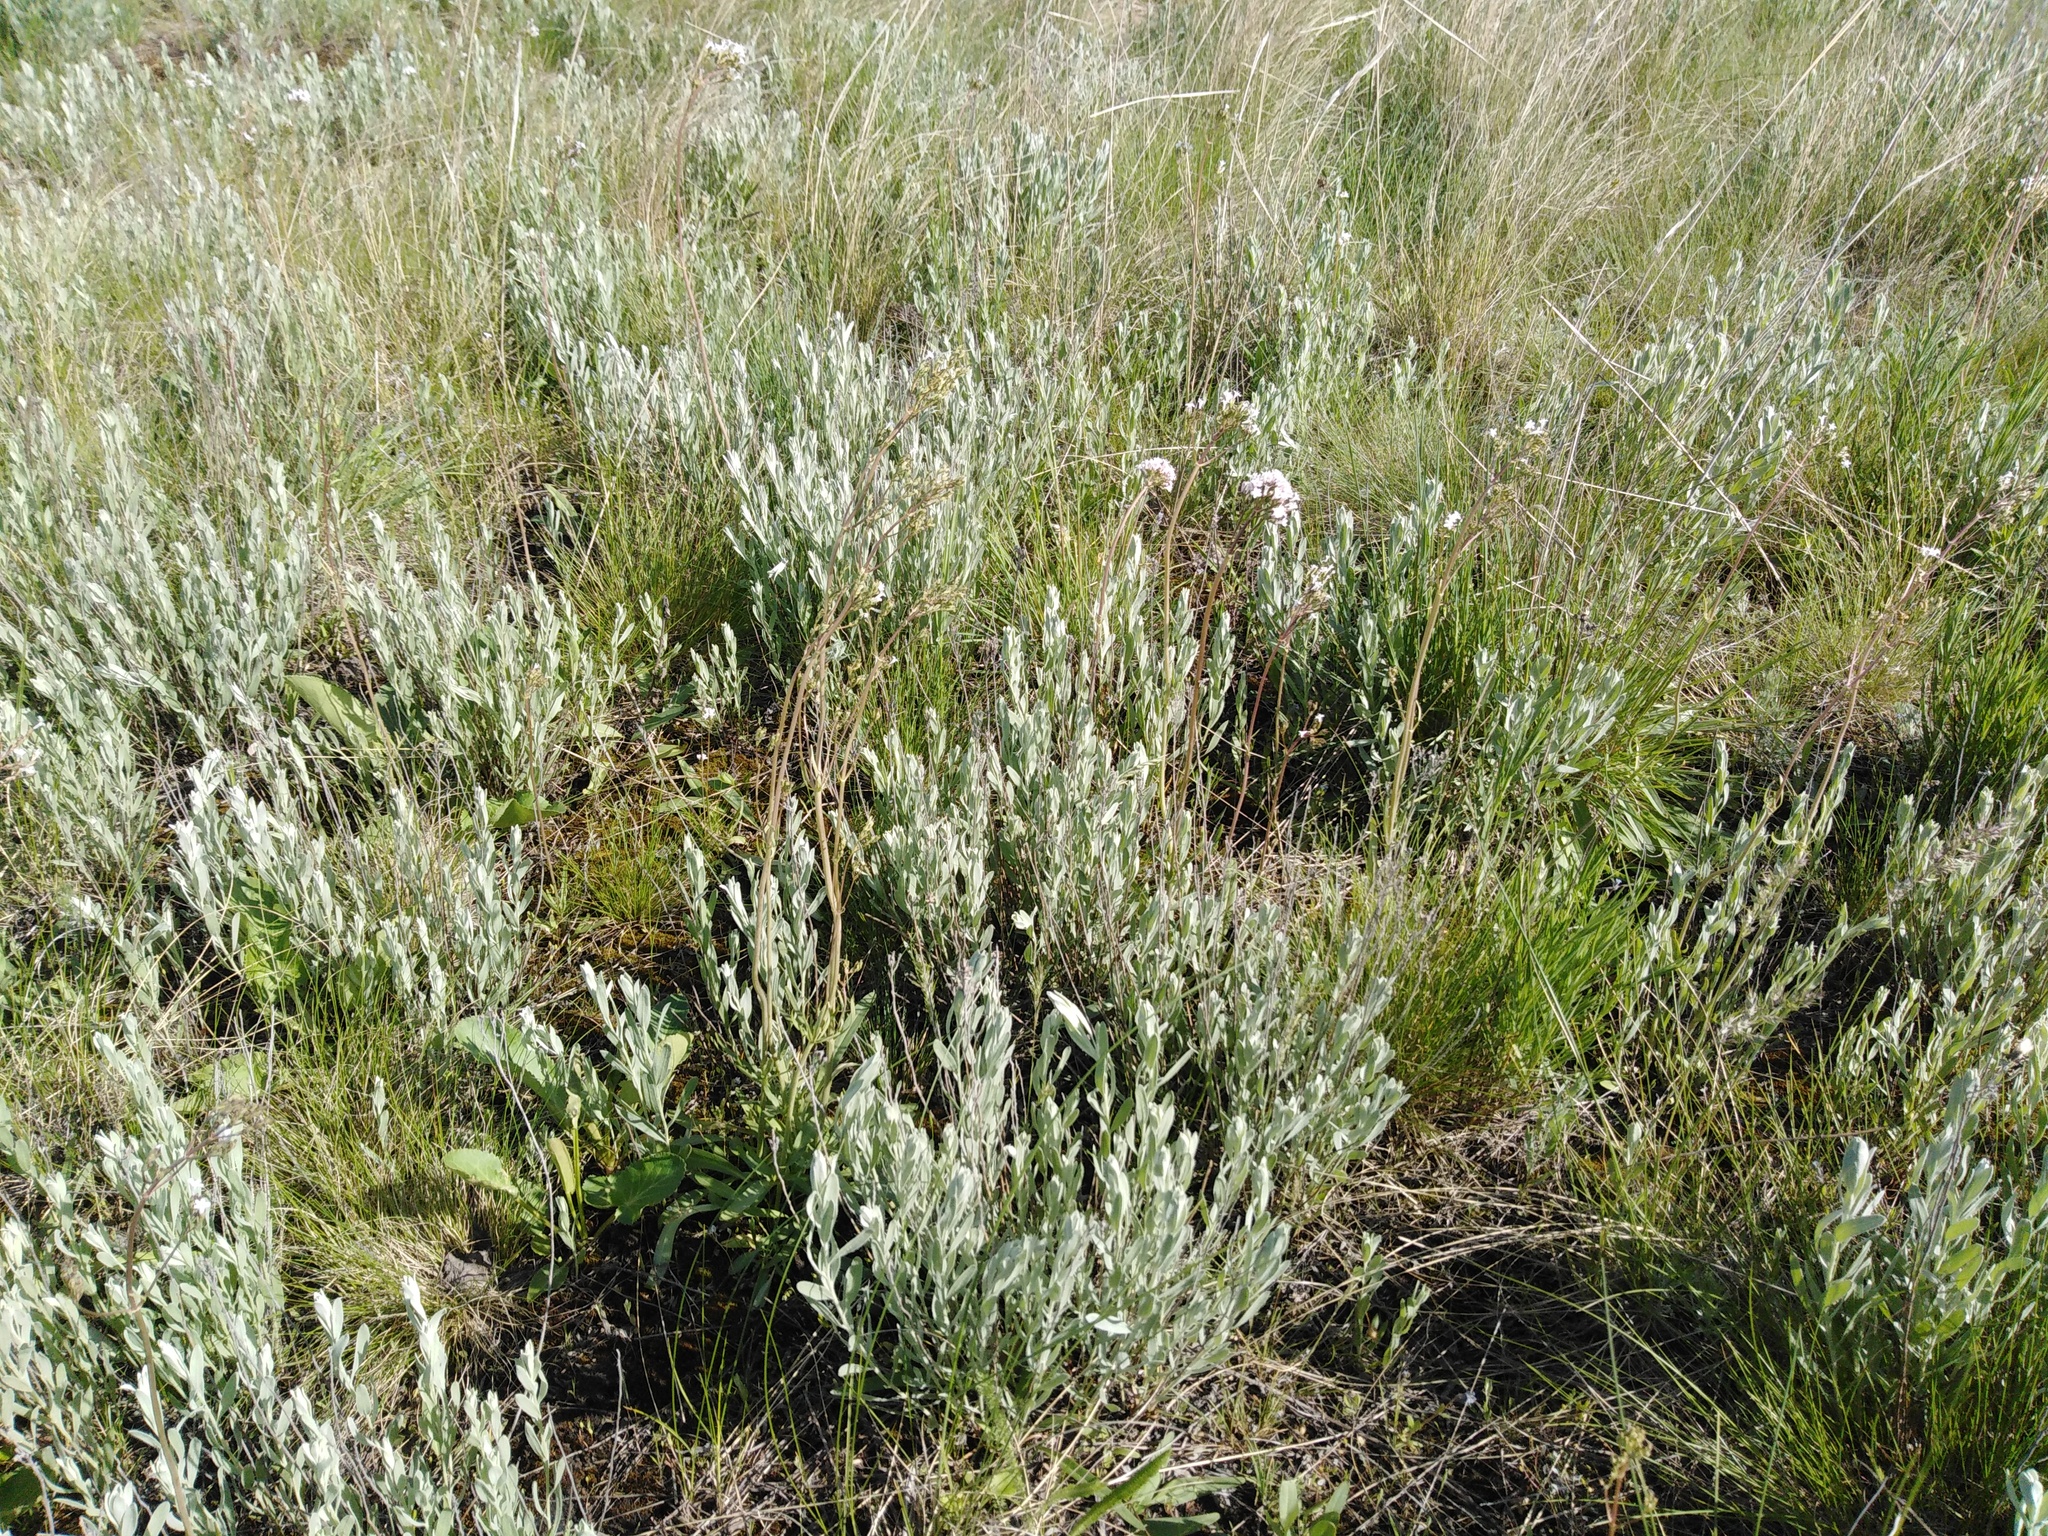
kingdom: Plantae
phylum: Tracheophyta
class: Magnoliopsida
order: Asterales
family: Asteraceae
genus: Galatella
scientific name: Galatella villosa
